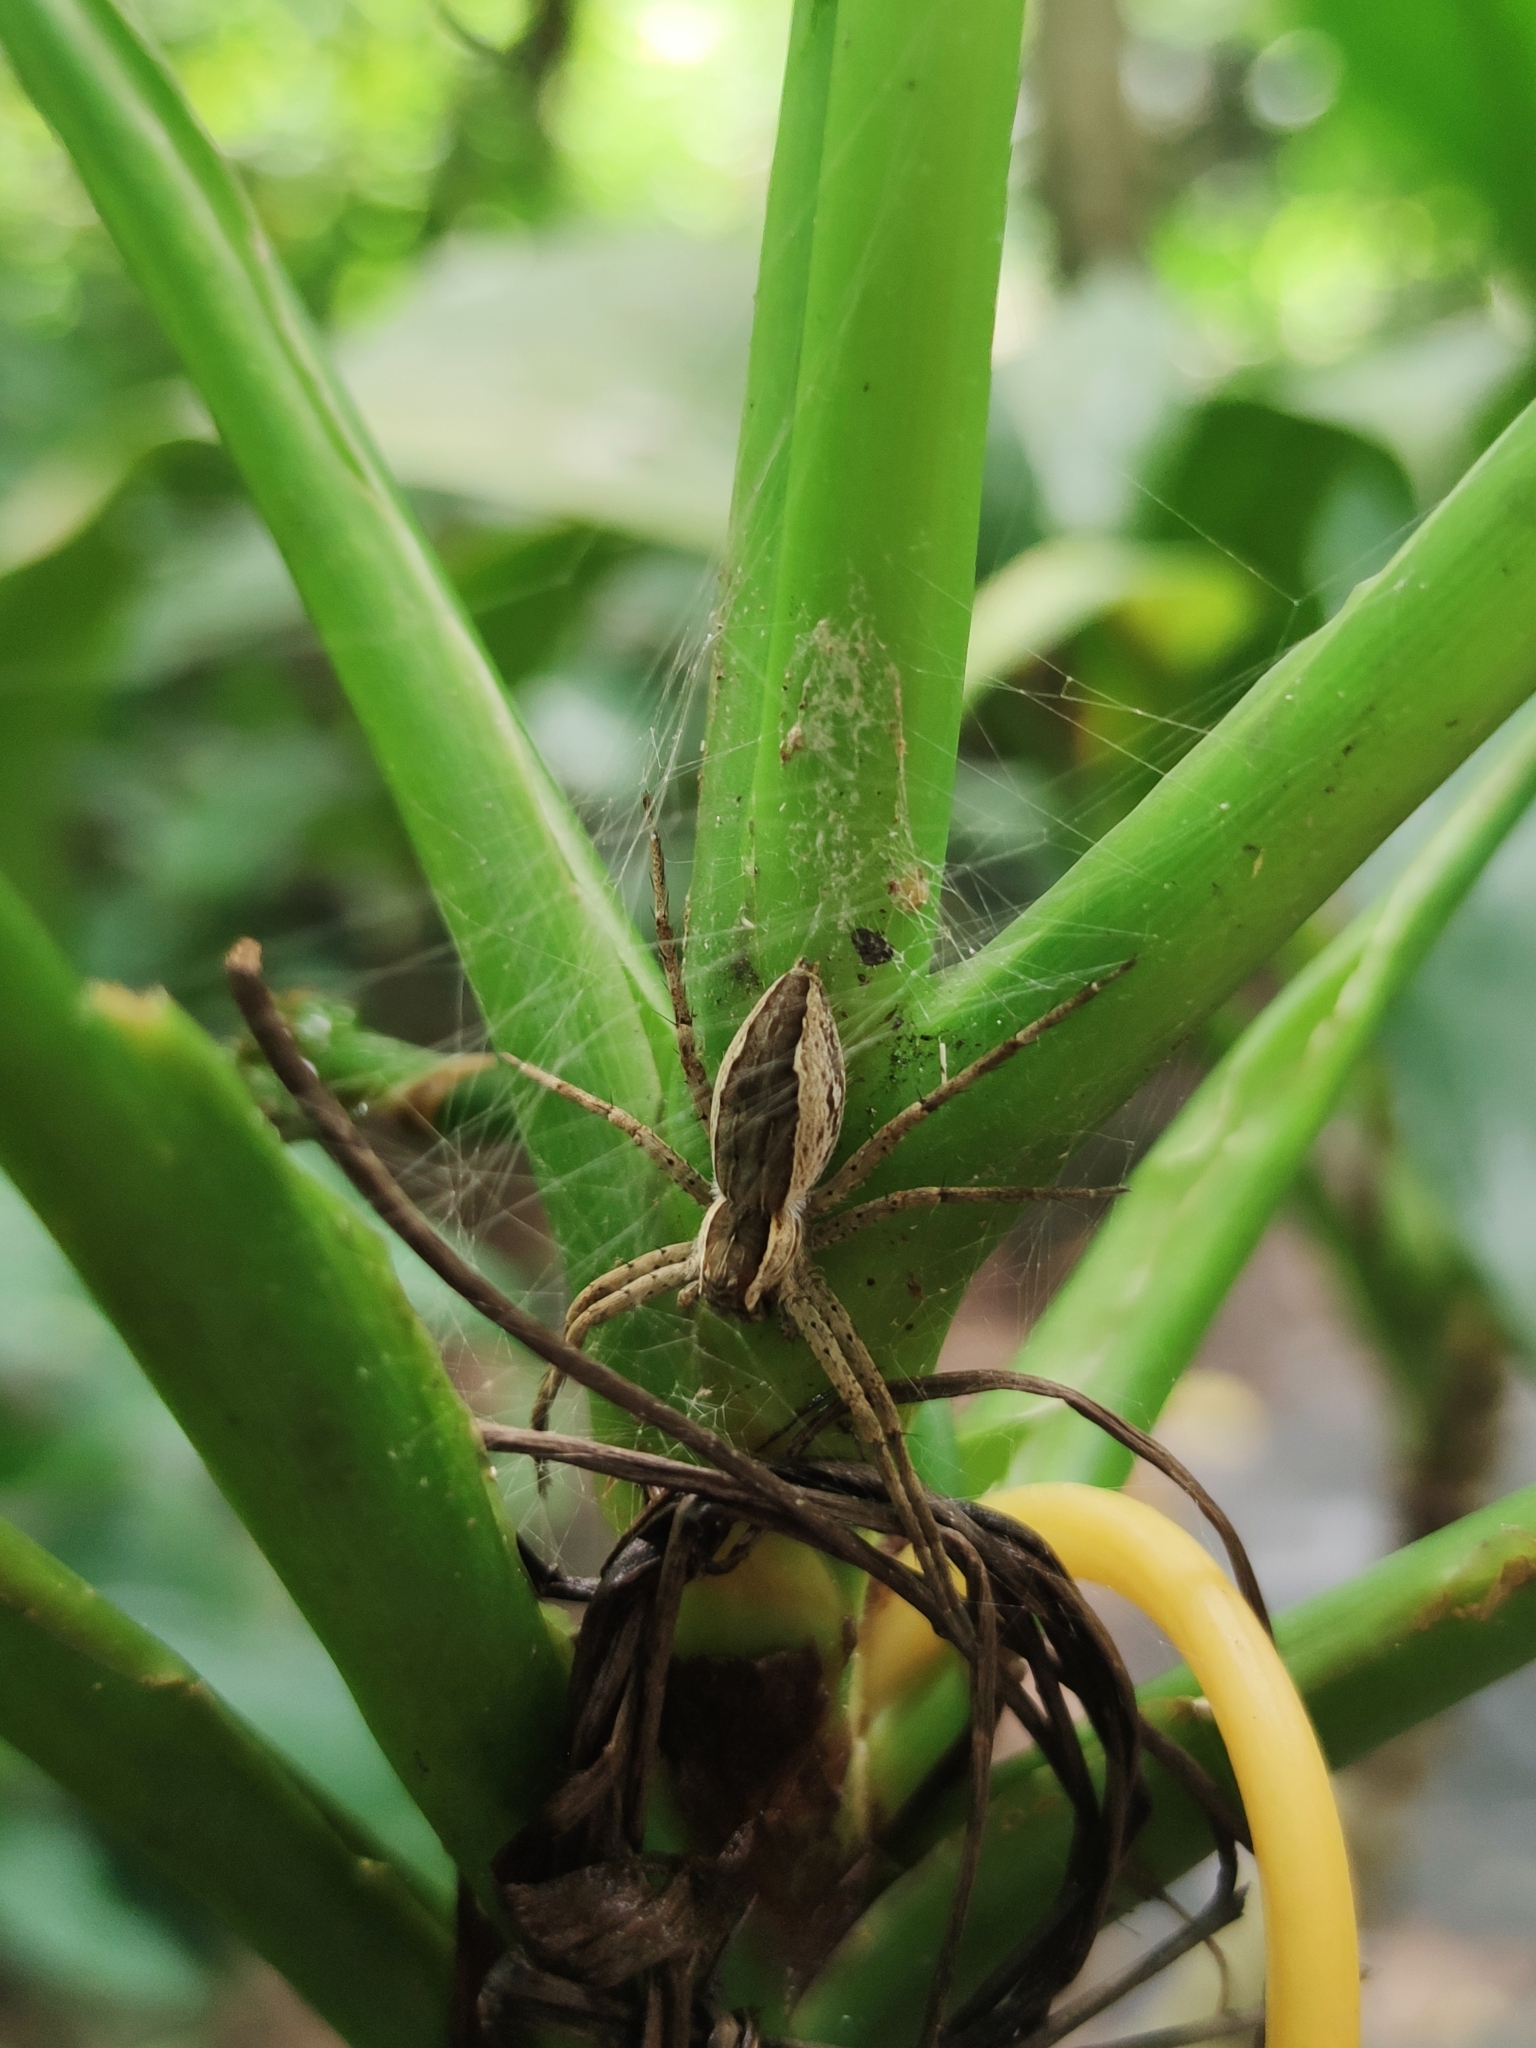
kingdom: Animalia
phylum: Arthropoda
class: Arachnida
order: Araneae
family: Pisauridae
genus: Nilus
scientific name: Nilus albocinctus
